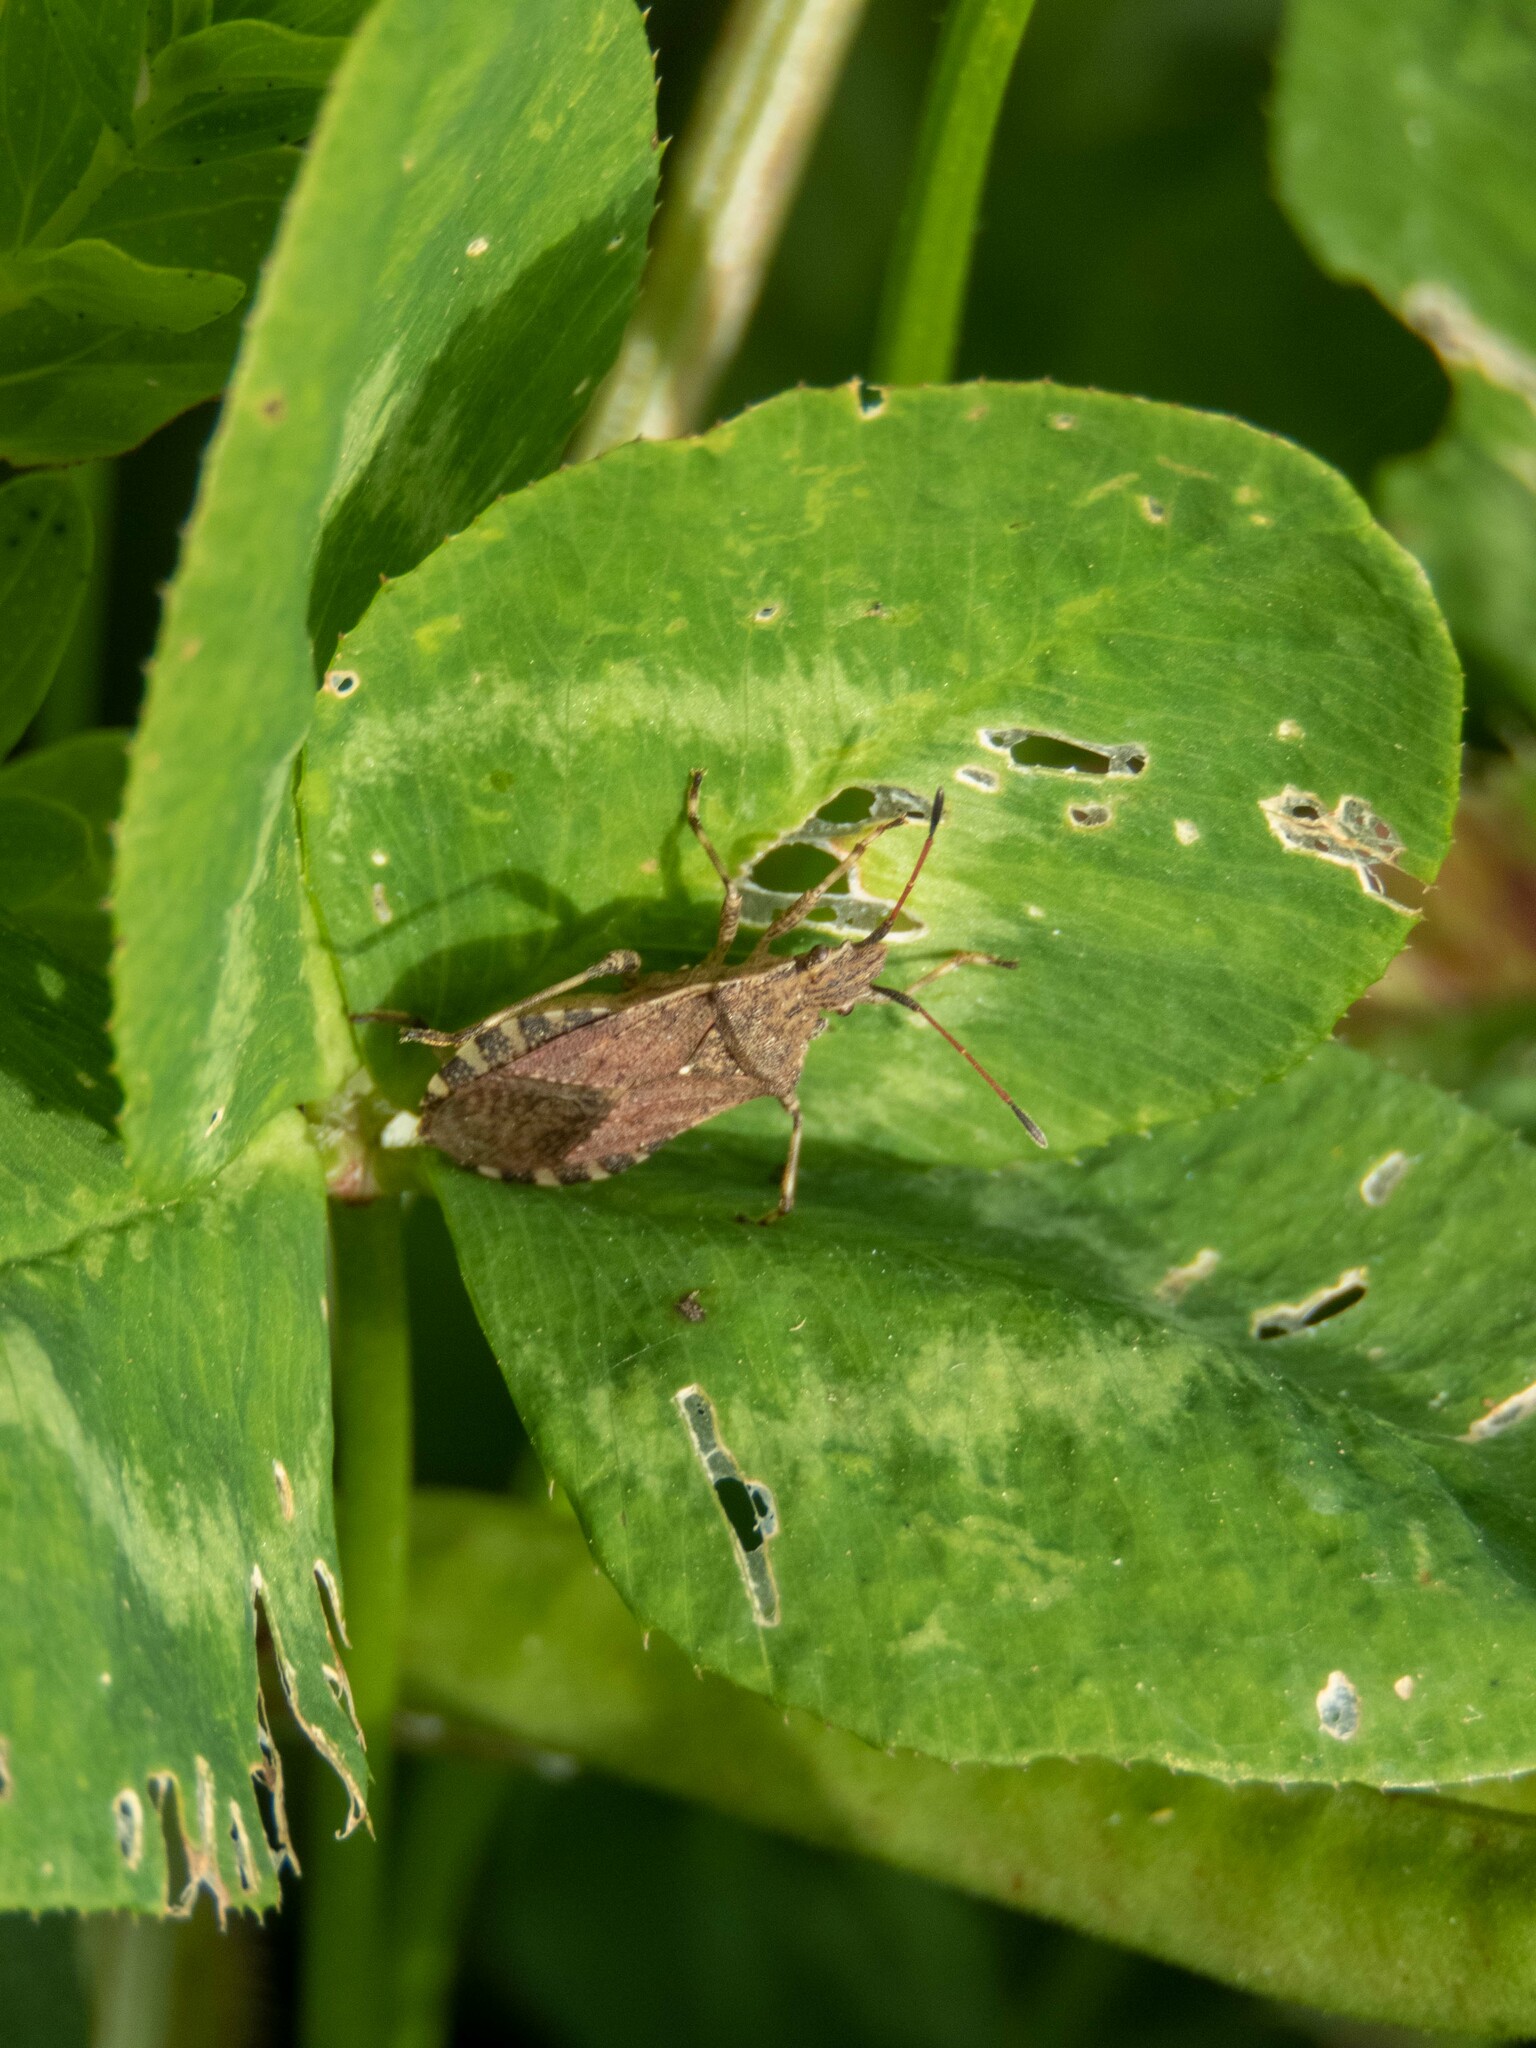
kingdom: Animalia
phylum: Arthropoda
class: Insecta
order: Hemiptera
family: Coreidae
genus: Ceraleptus
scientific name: Ceraleptus gracilicornis
